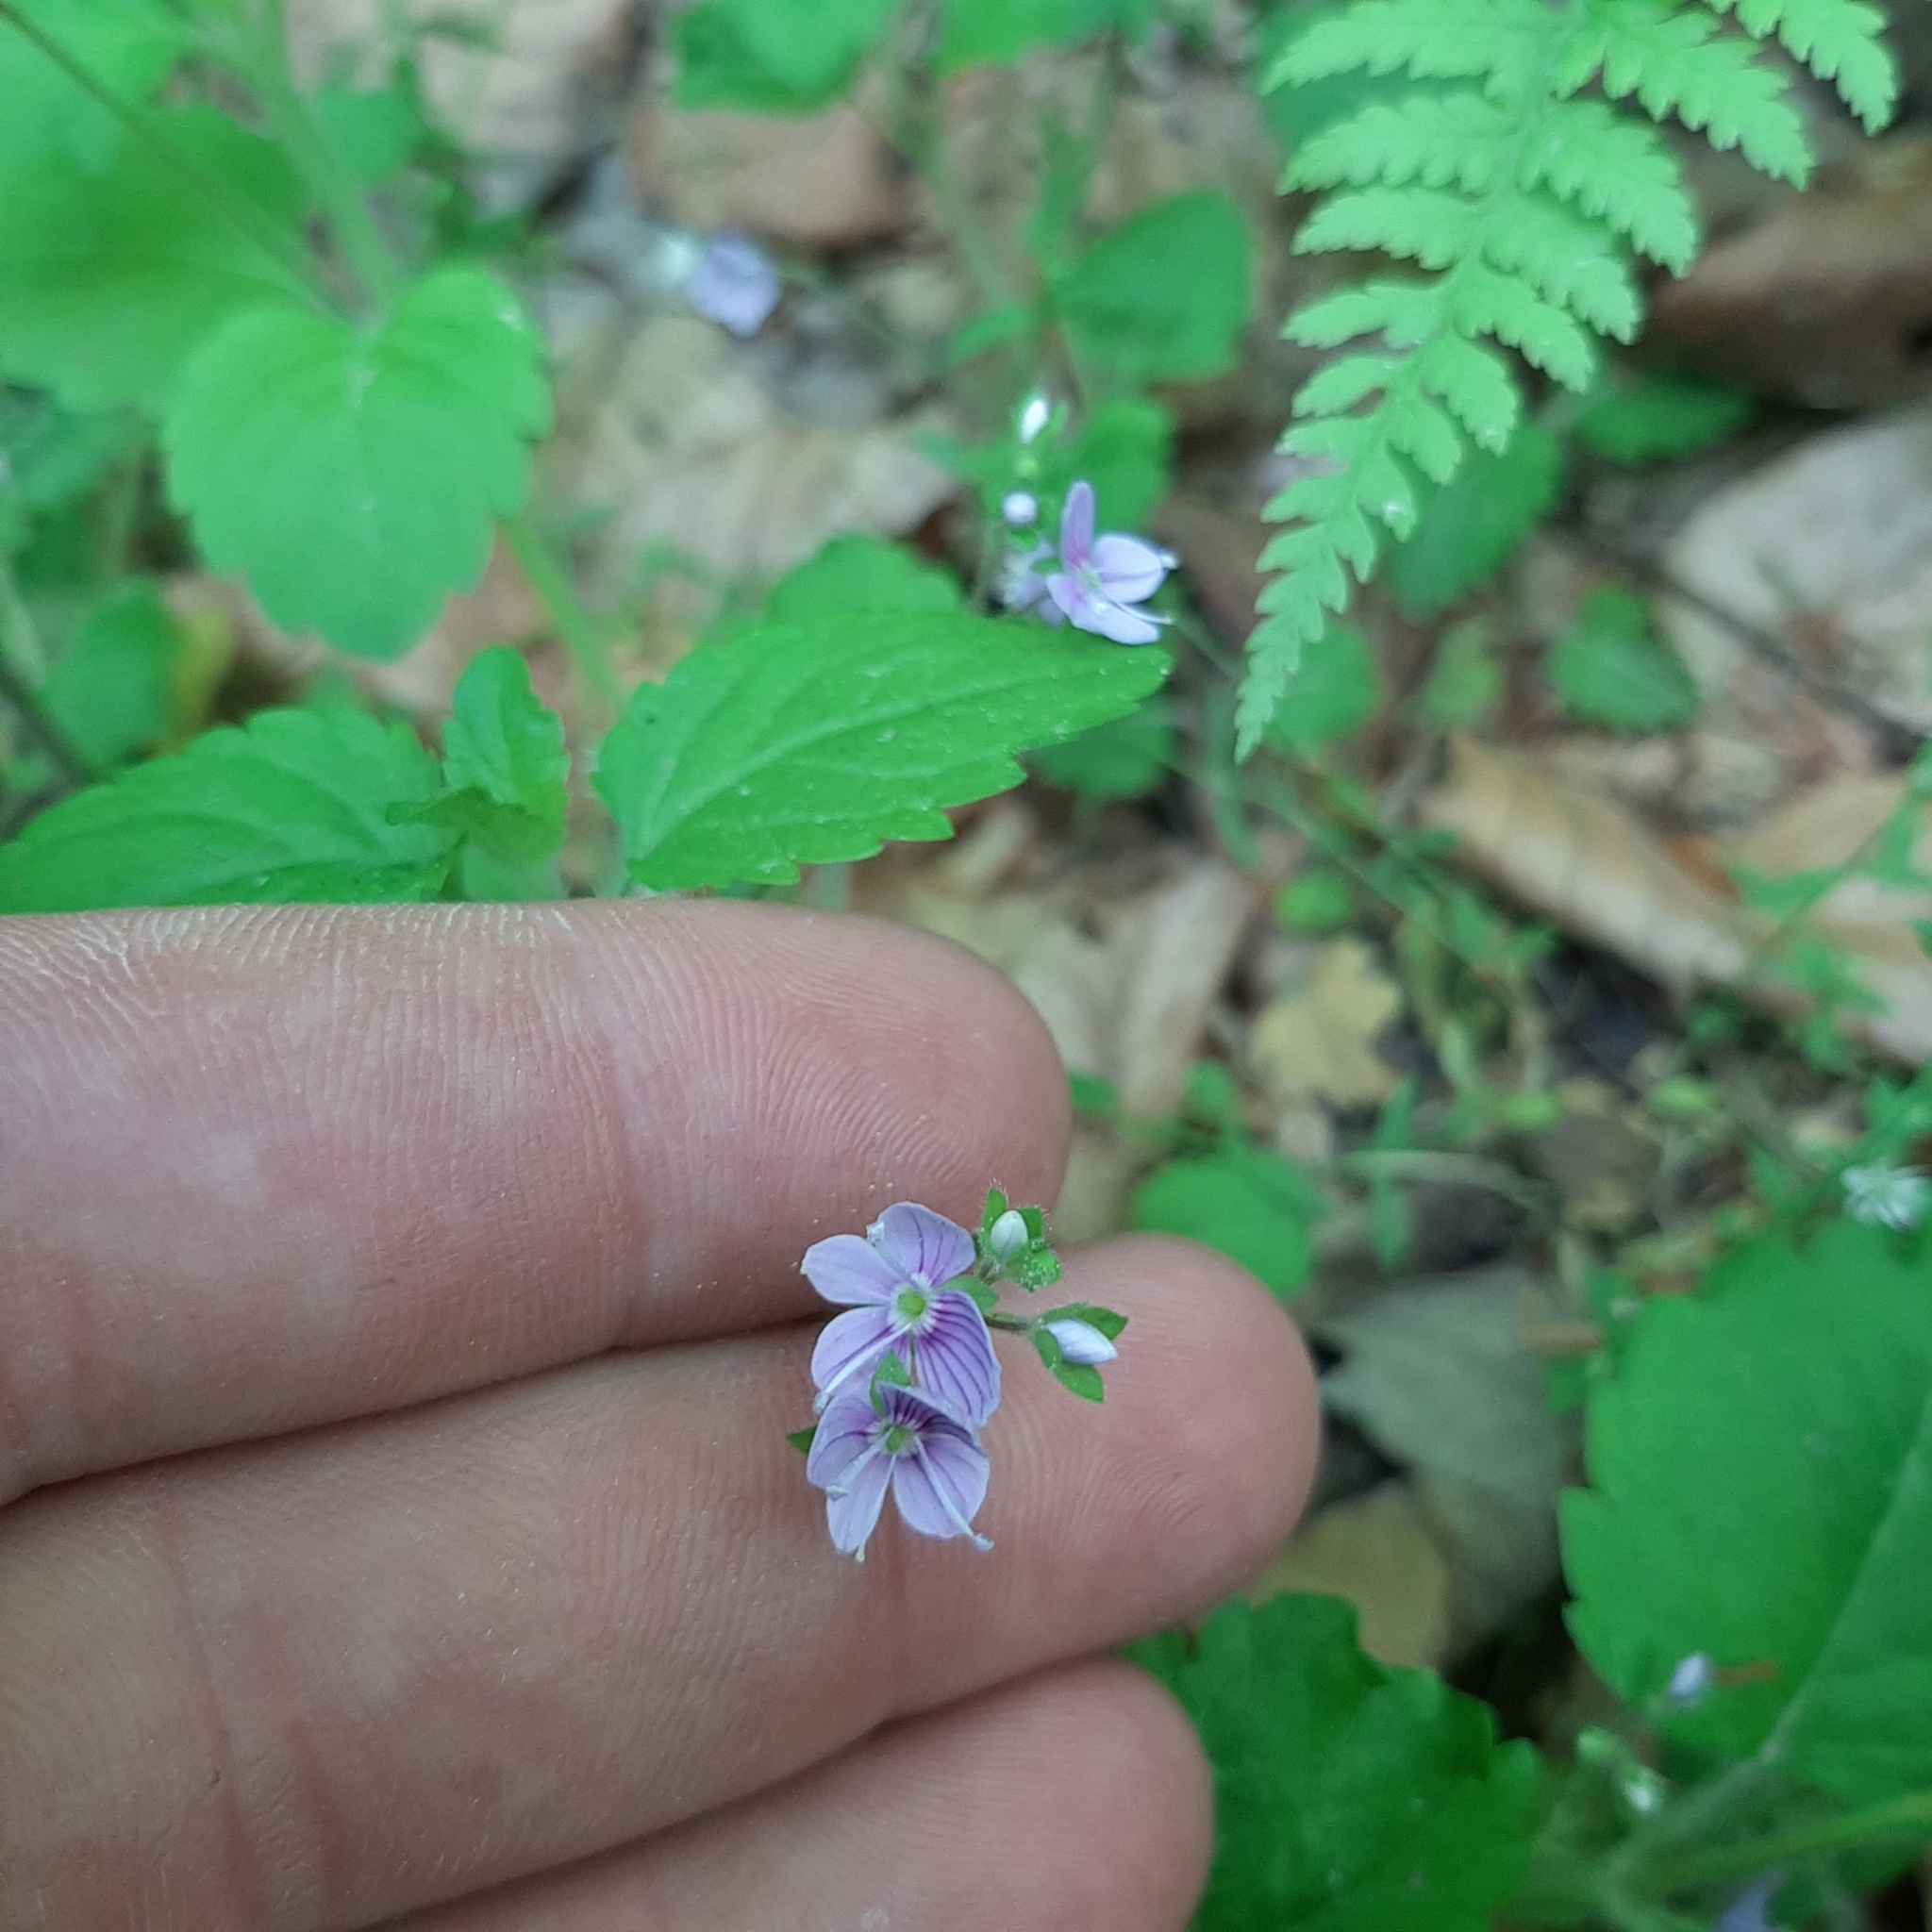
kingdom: Plantae
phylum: Tracheophyta
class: Magnoliopsida
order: Lamiales
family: Plantaginaceae
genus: Veronica
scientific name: Veronica montana
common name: Wood speedwell
